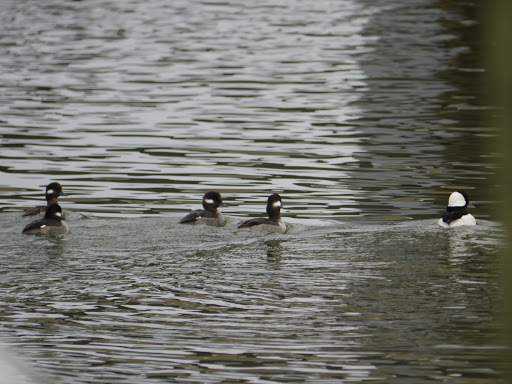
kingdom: Animalia
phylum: Chordata
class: Aves
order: Anseriformes
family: Anatidae
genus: Bucephala
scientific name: Bucephala albeola
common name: Bufflehead
